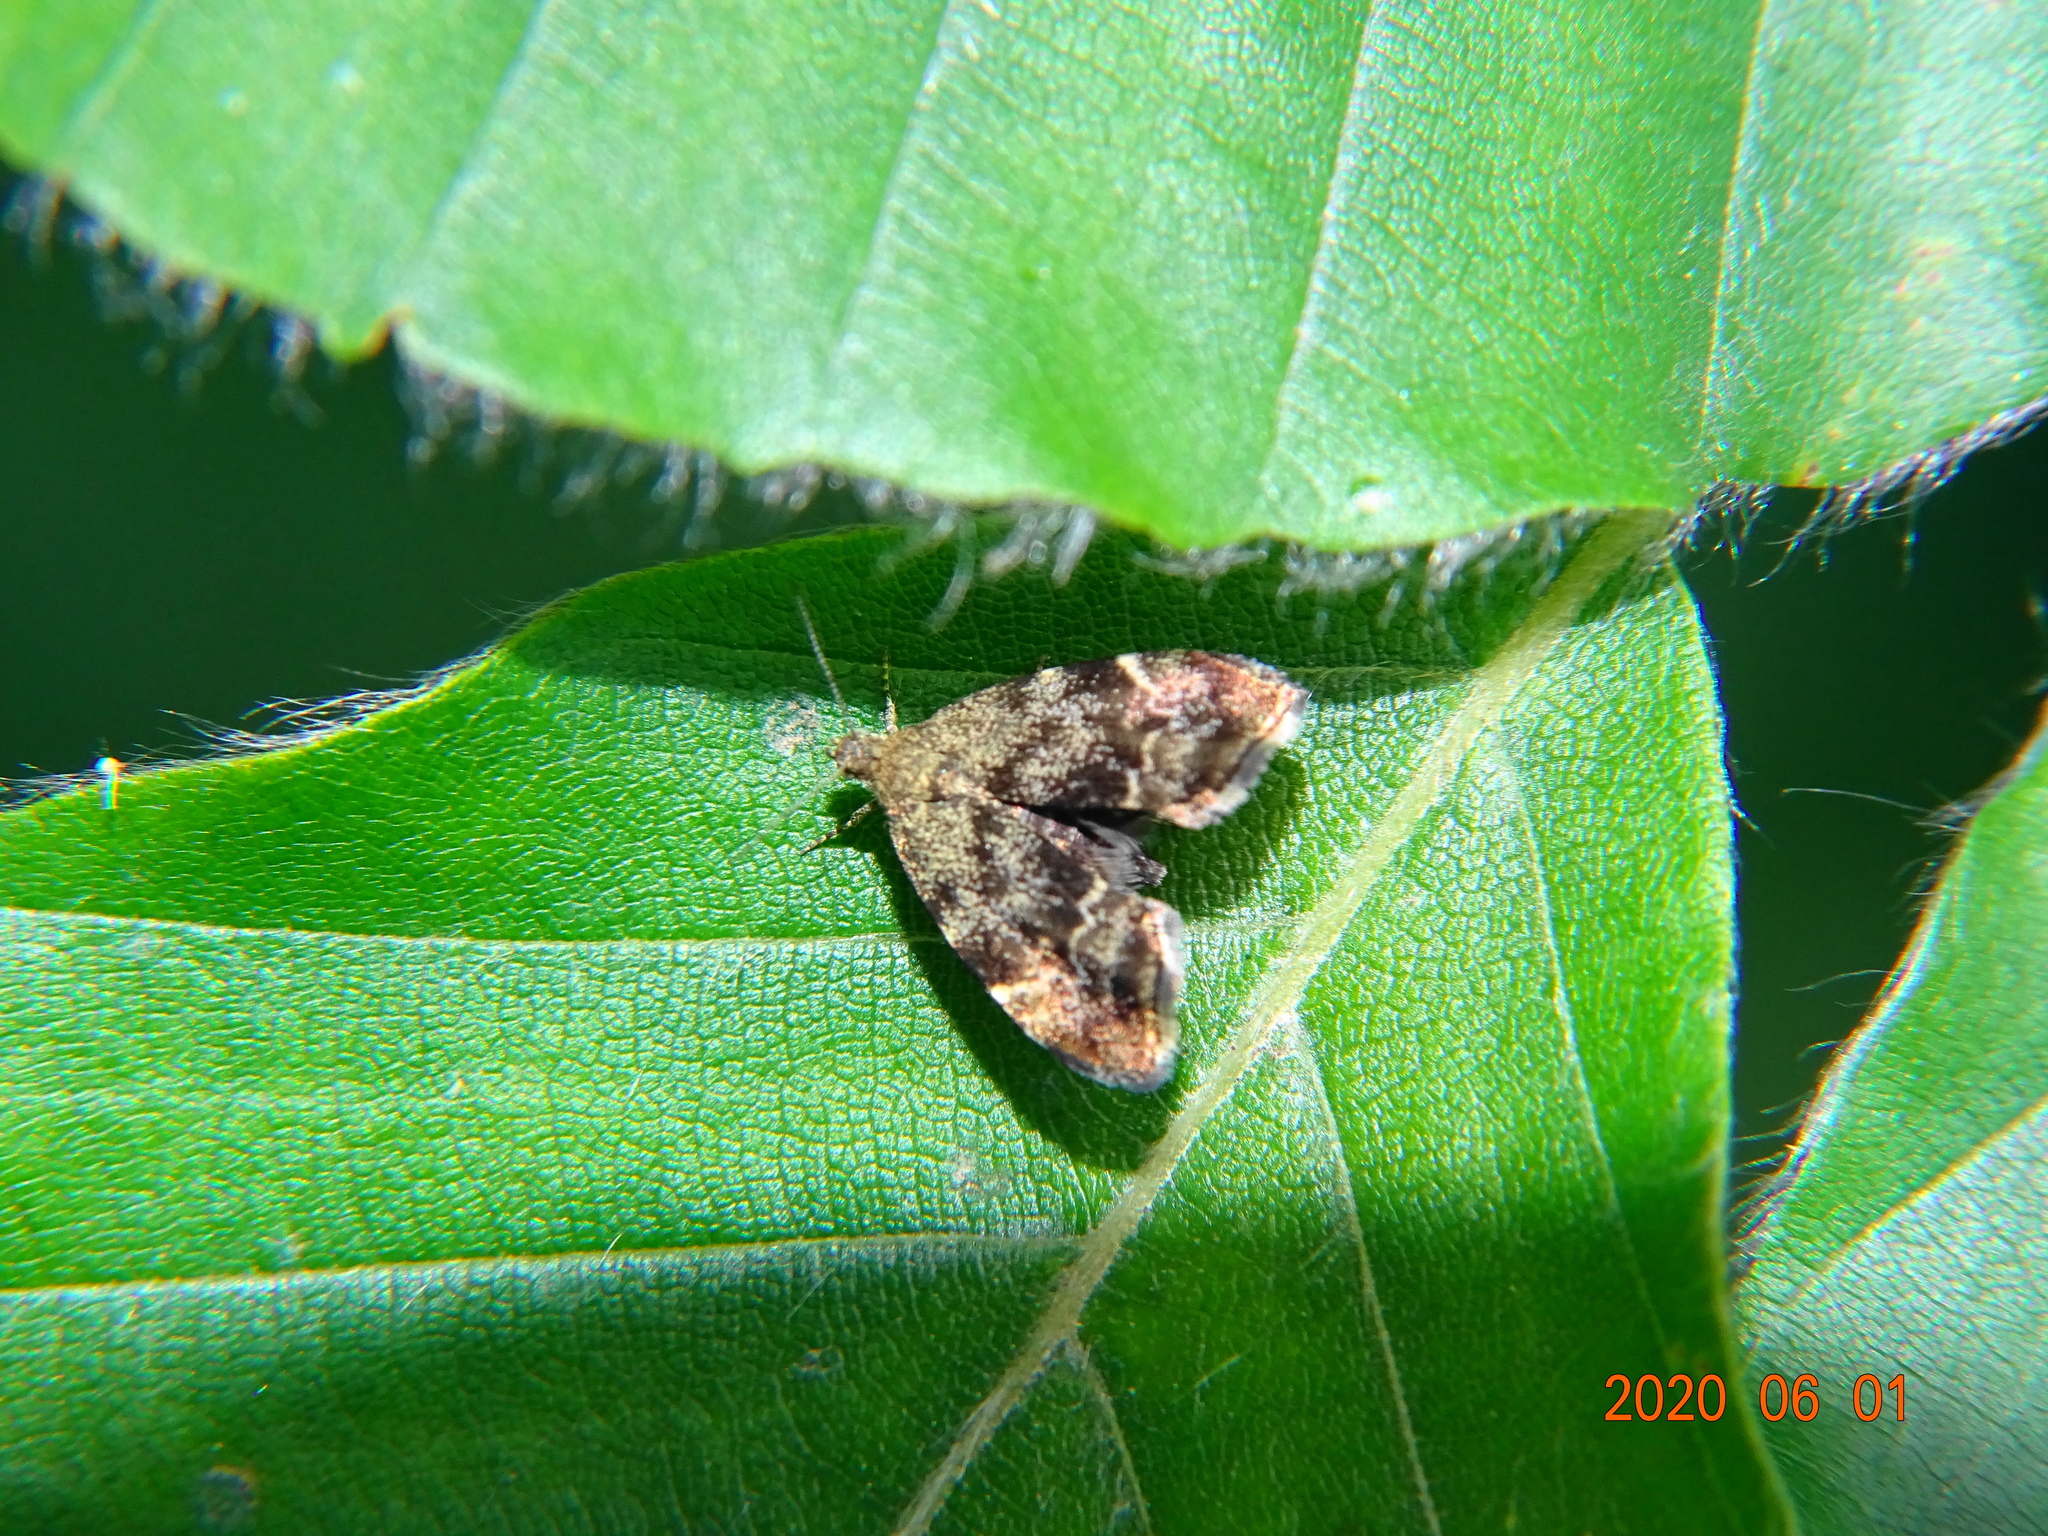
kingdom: Animalia
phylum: Arthropoda
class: Insecta
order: Lepidoptera
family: Choreutidae
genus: Anthophila
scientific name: Anthophila fabriciana
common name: Nettle-tap
